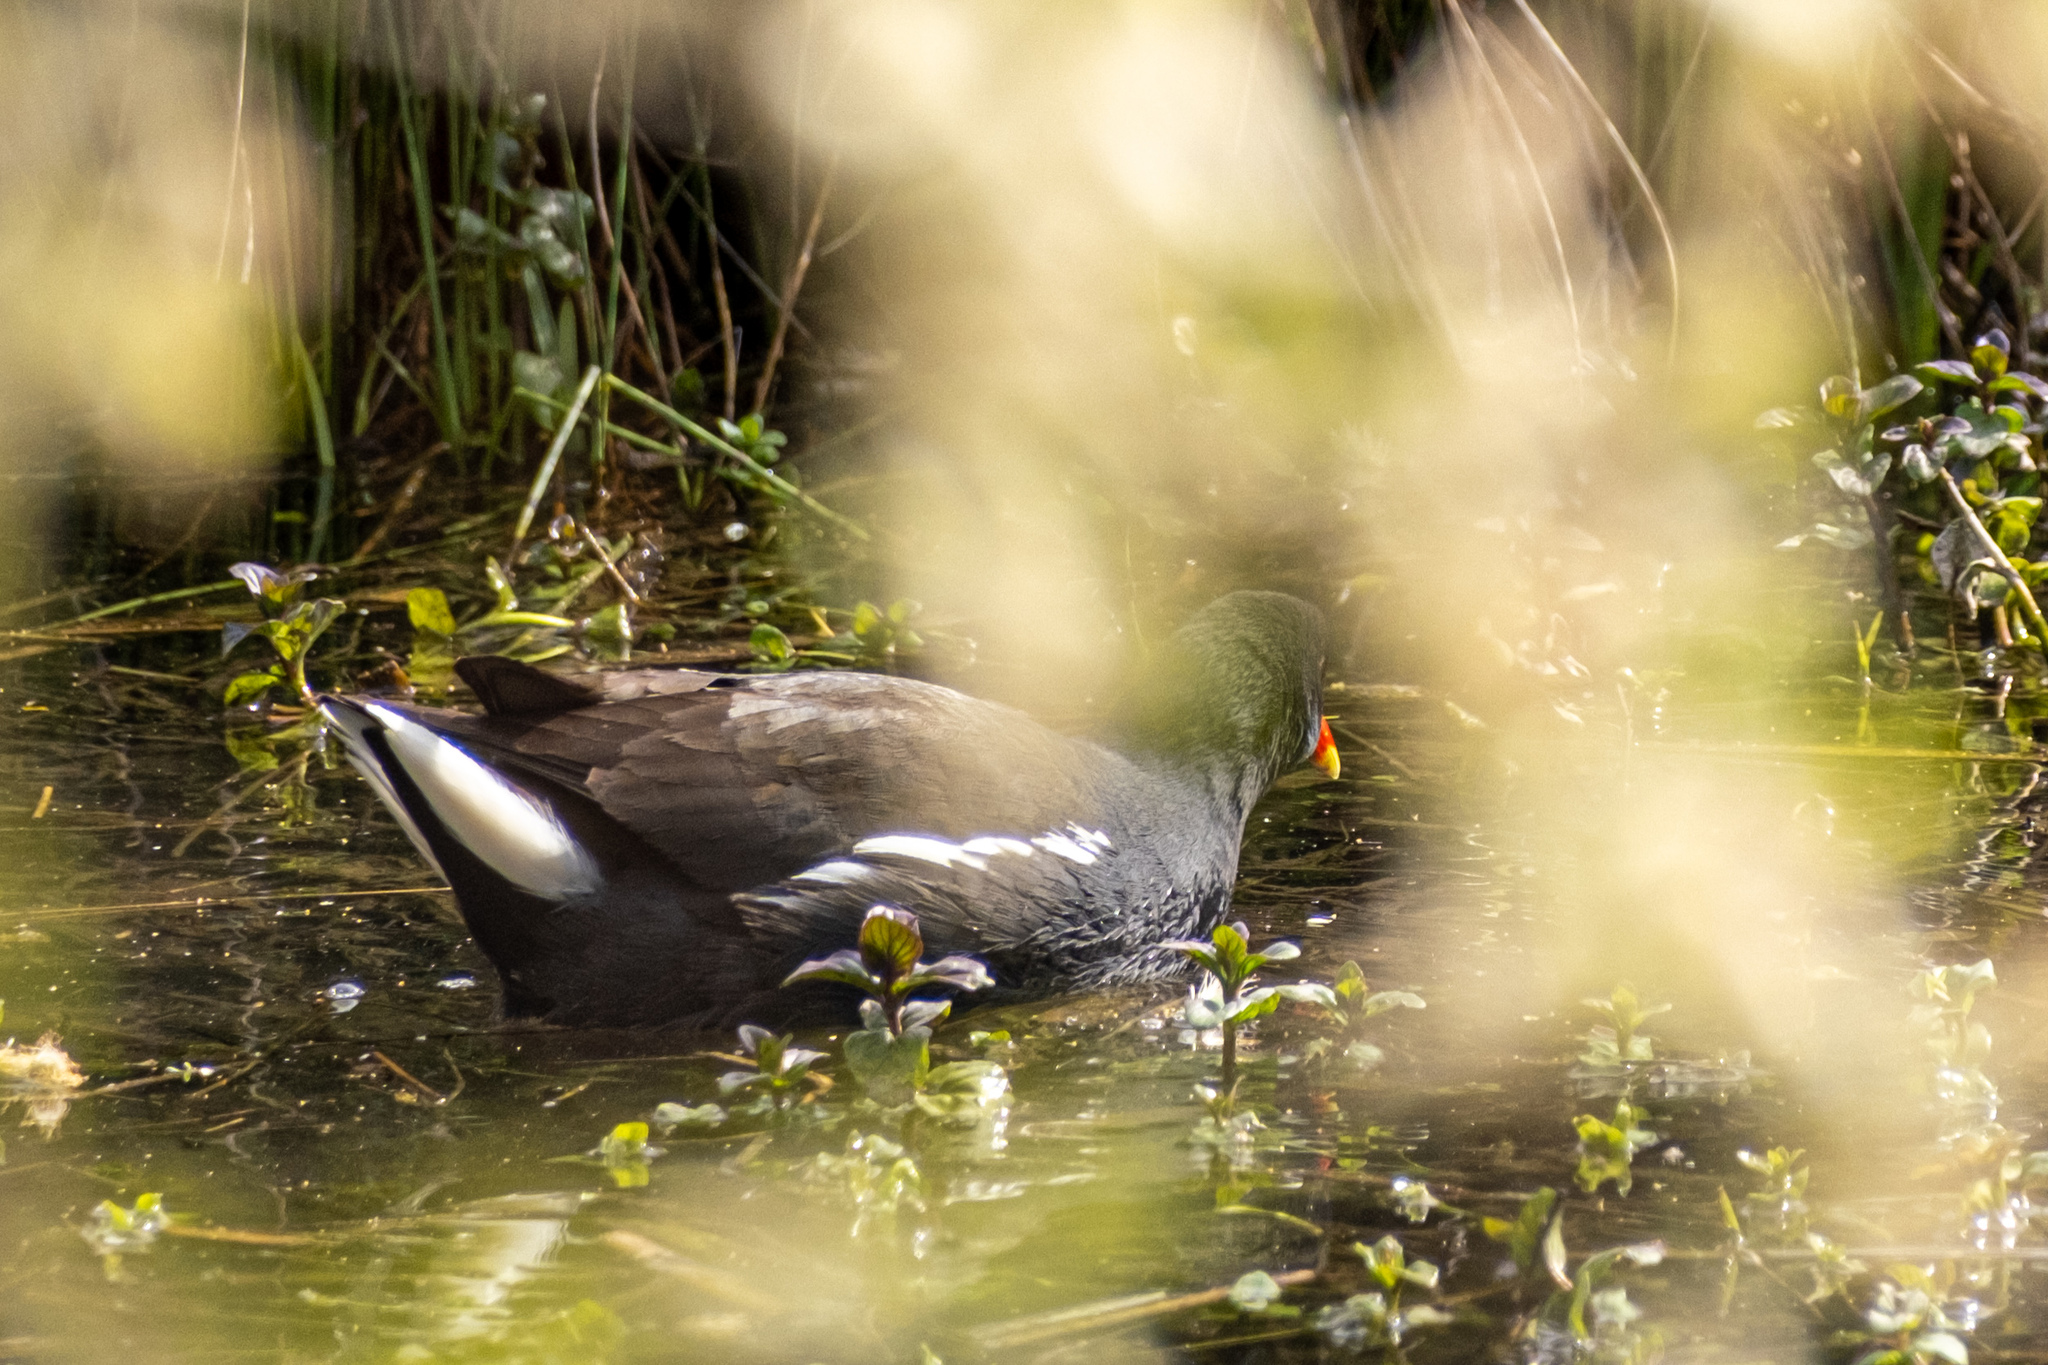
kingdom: Animalia
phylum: Chordata
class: Aves
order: Gruiformes
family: Rallidae
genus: Gallinula
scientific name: Gallinula chloropus
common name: Common moorhen
